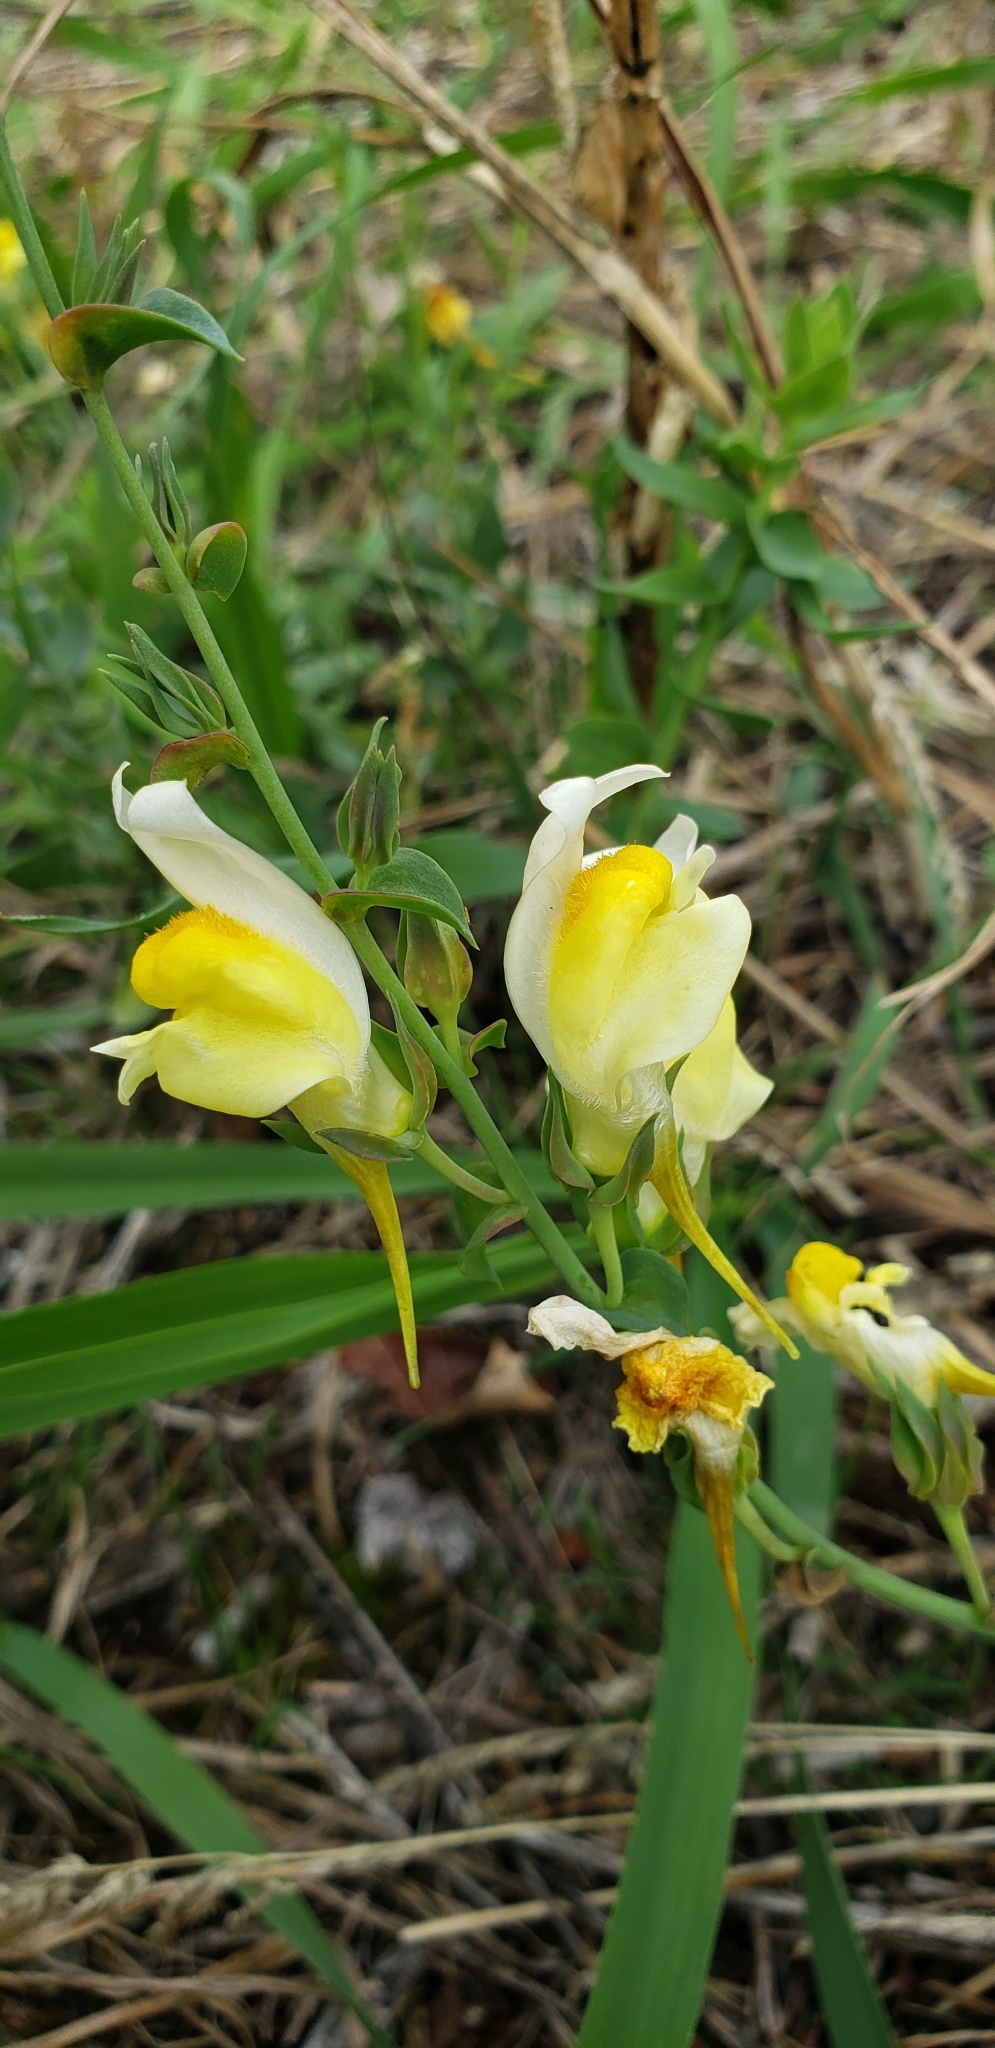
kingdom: Plantae
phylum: Tracheophyta
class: Magnoliopsida
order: Lamiales
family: Plantaginaceae
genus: Linaria
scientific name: Linaria vulgaris
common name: Butter and eggs
